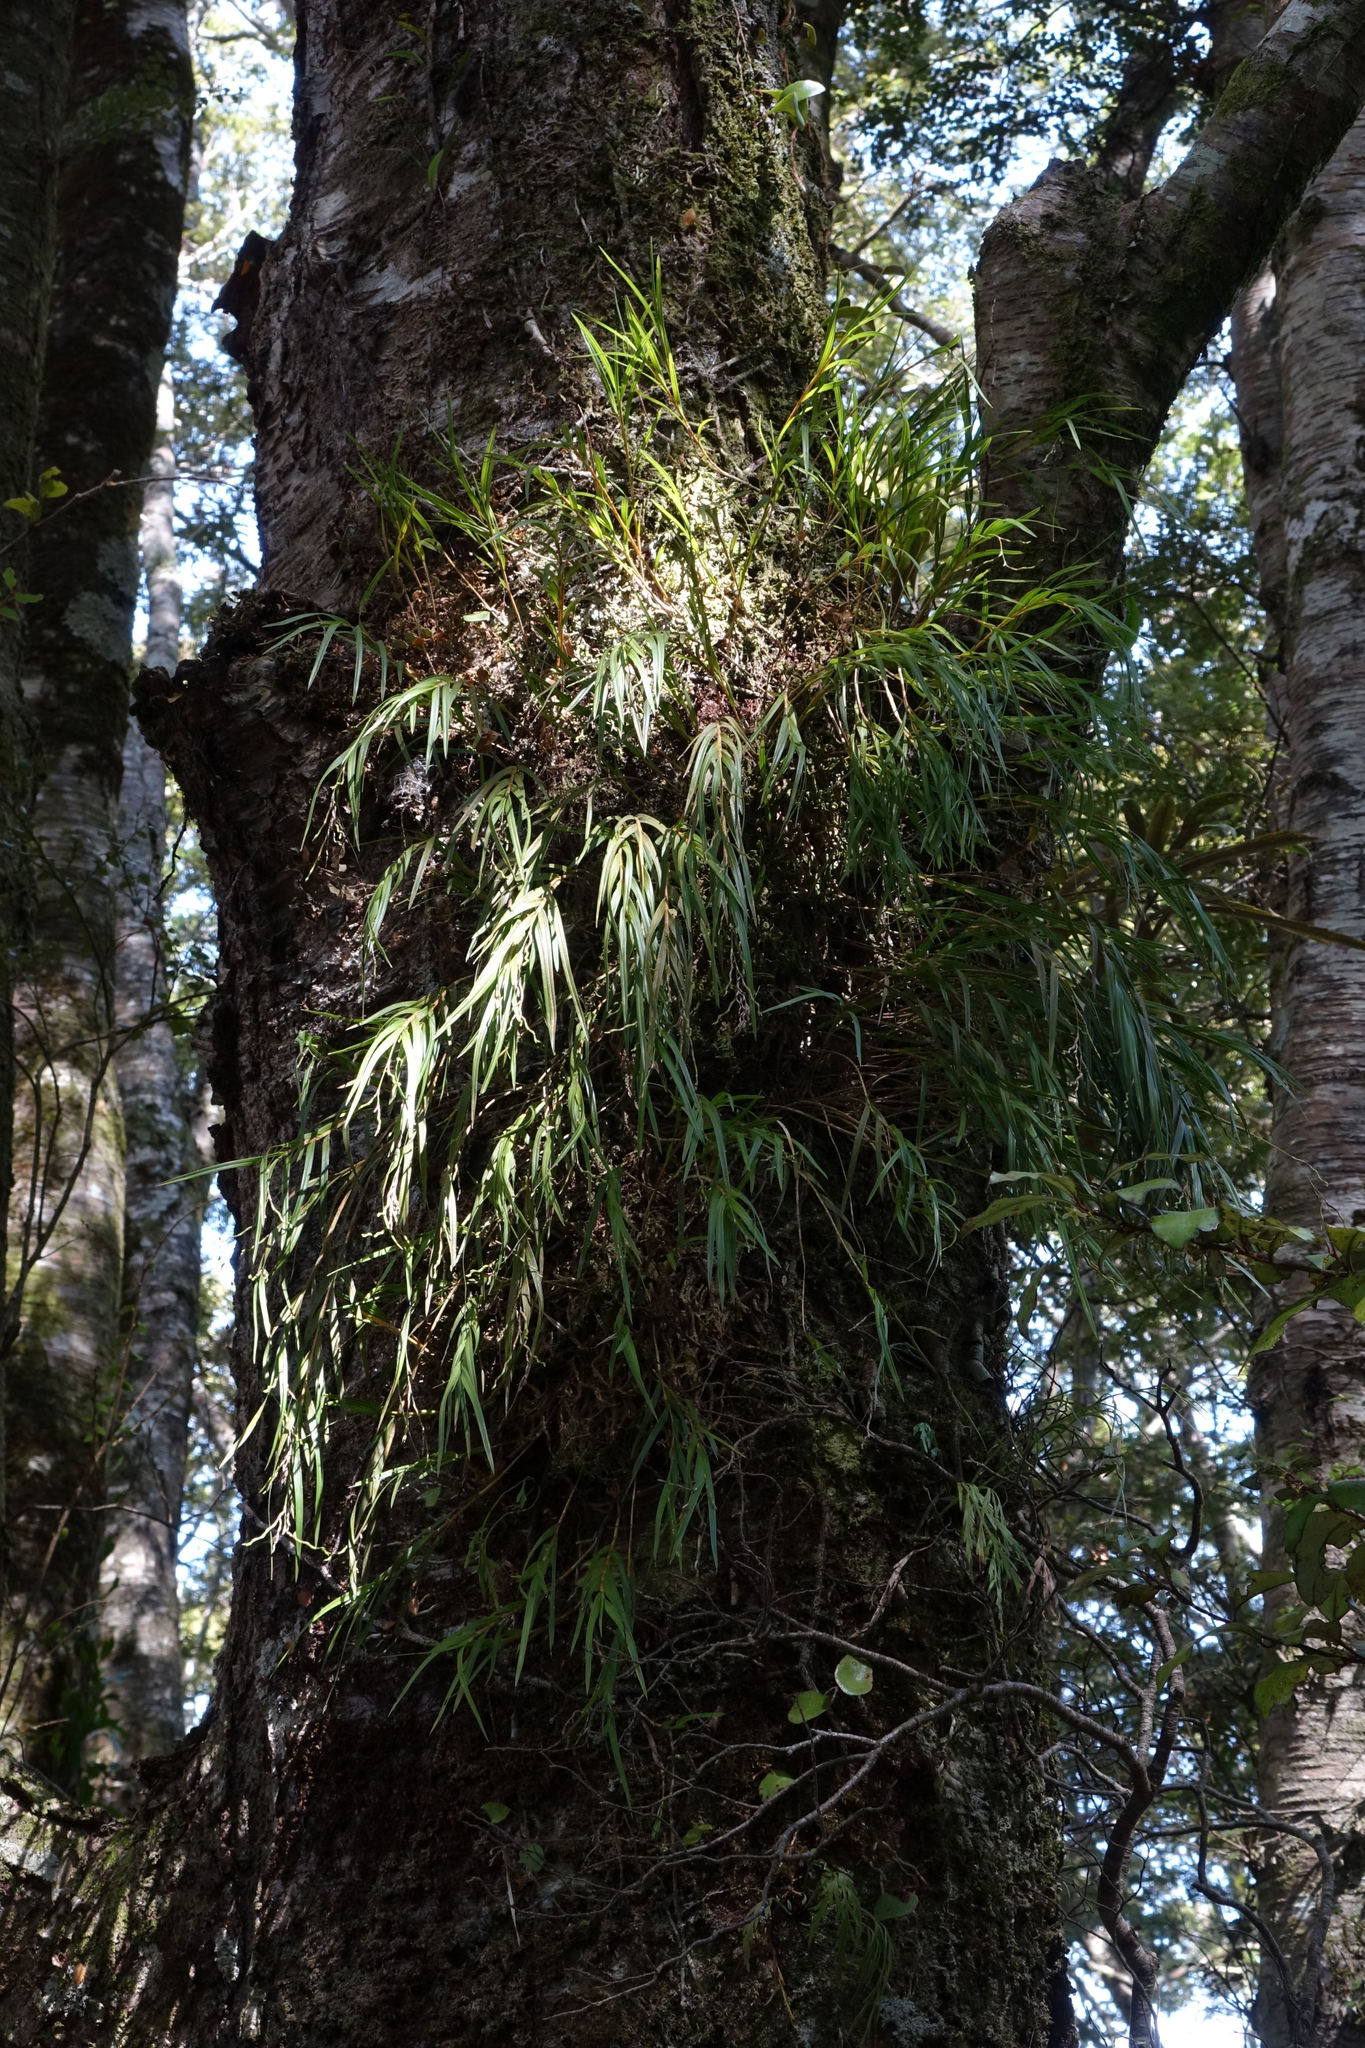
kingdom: Plantae
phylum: Tracheophyta
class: Liliopsida
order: Asparagales
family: Orchidaceae
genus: Earina
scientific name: Earina mucronata
